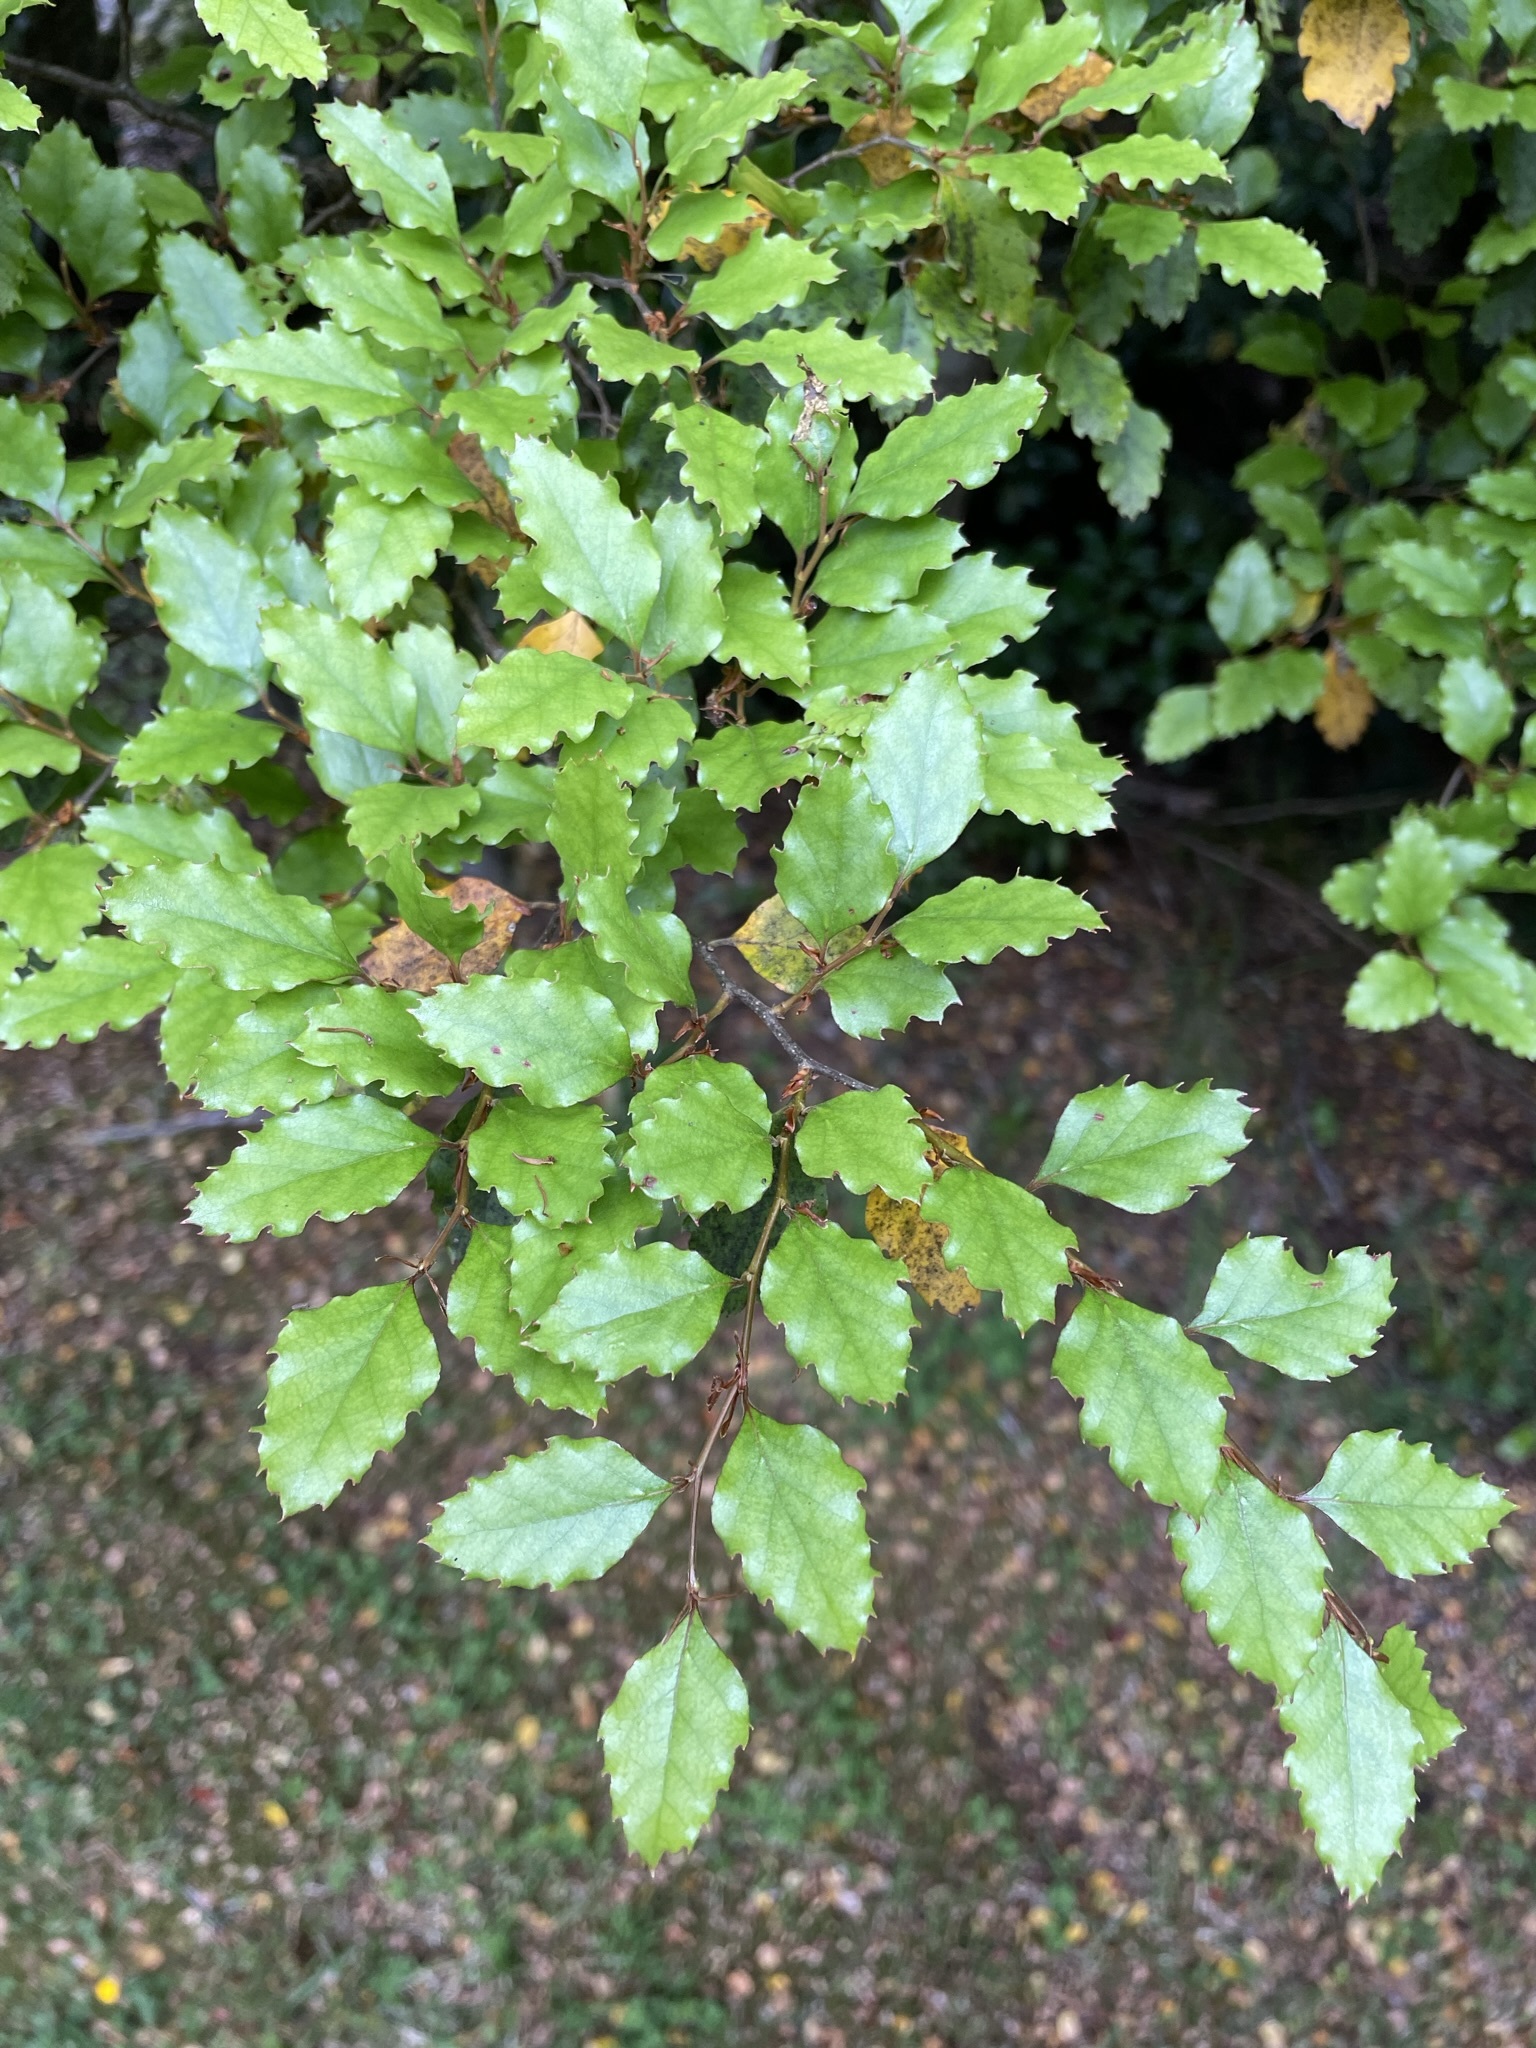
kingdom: Plantae
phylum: Tracheophyta
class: Magnoliopsida
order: Fagales
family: Nothofagaceae
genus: Nothofagus
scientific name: Nothofagus fusca
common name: Red beech
